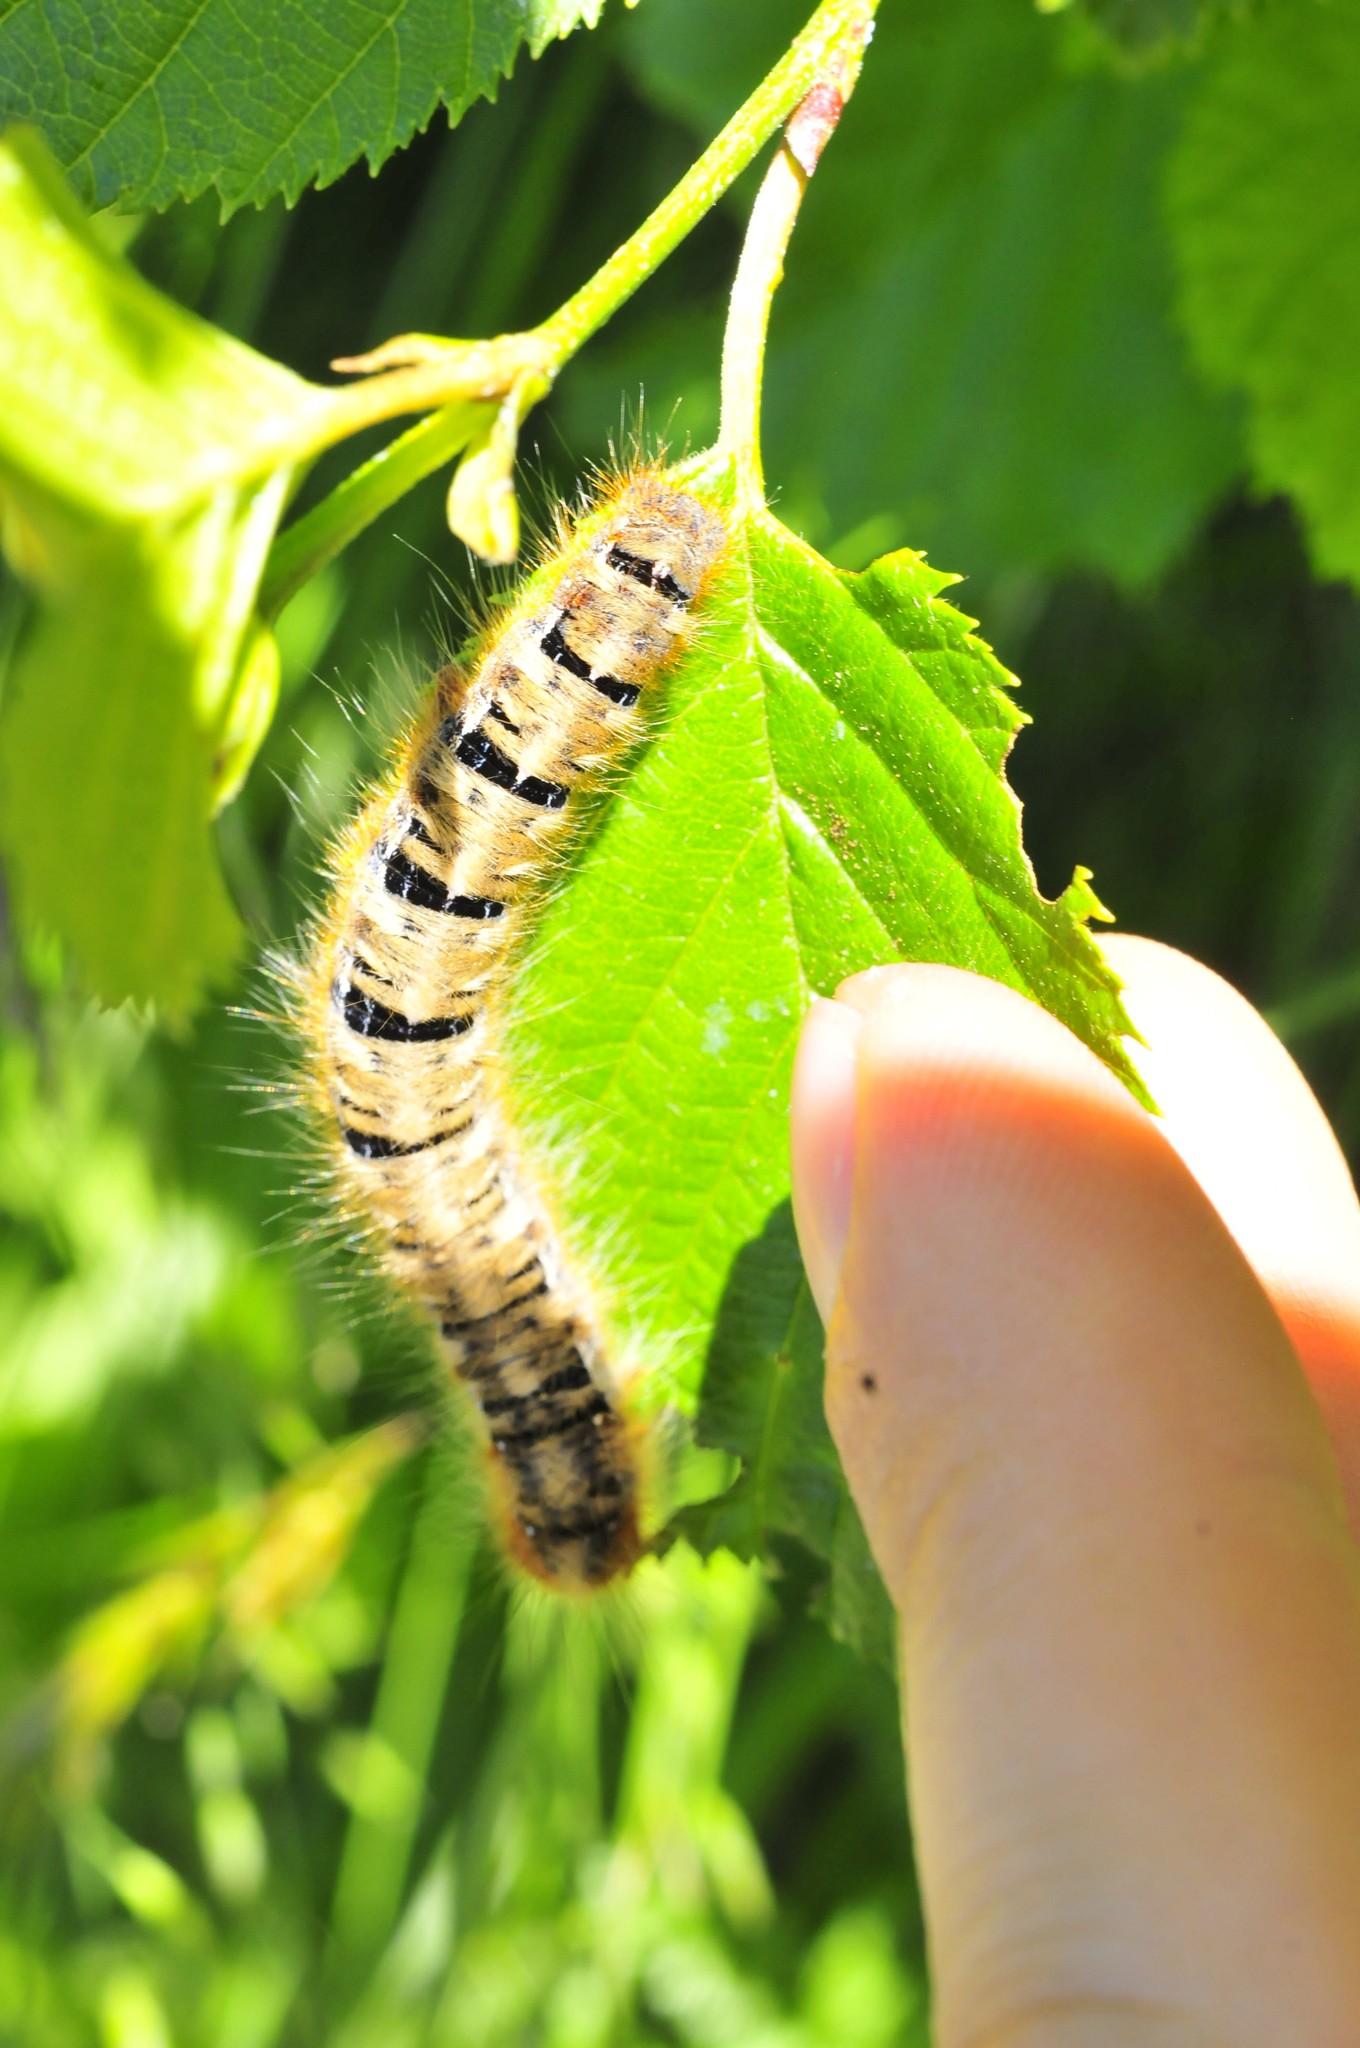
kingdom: Animalia
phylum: Arthropoda
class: Insecta
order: Lepidoptera
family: Lasiocampidae
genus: Lasiocampa
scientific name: Lasiocampa quercus
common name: Oak eggar
